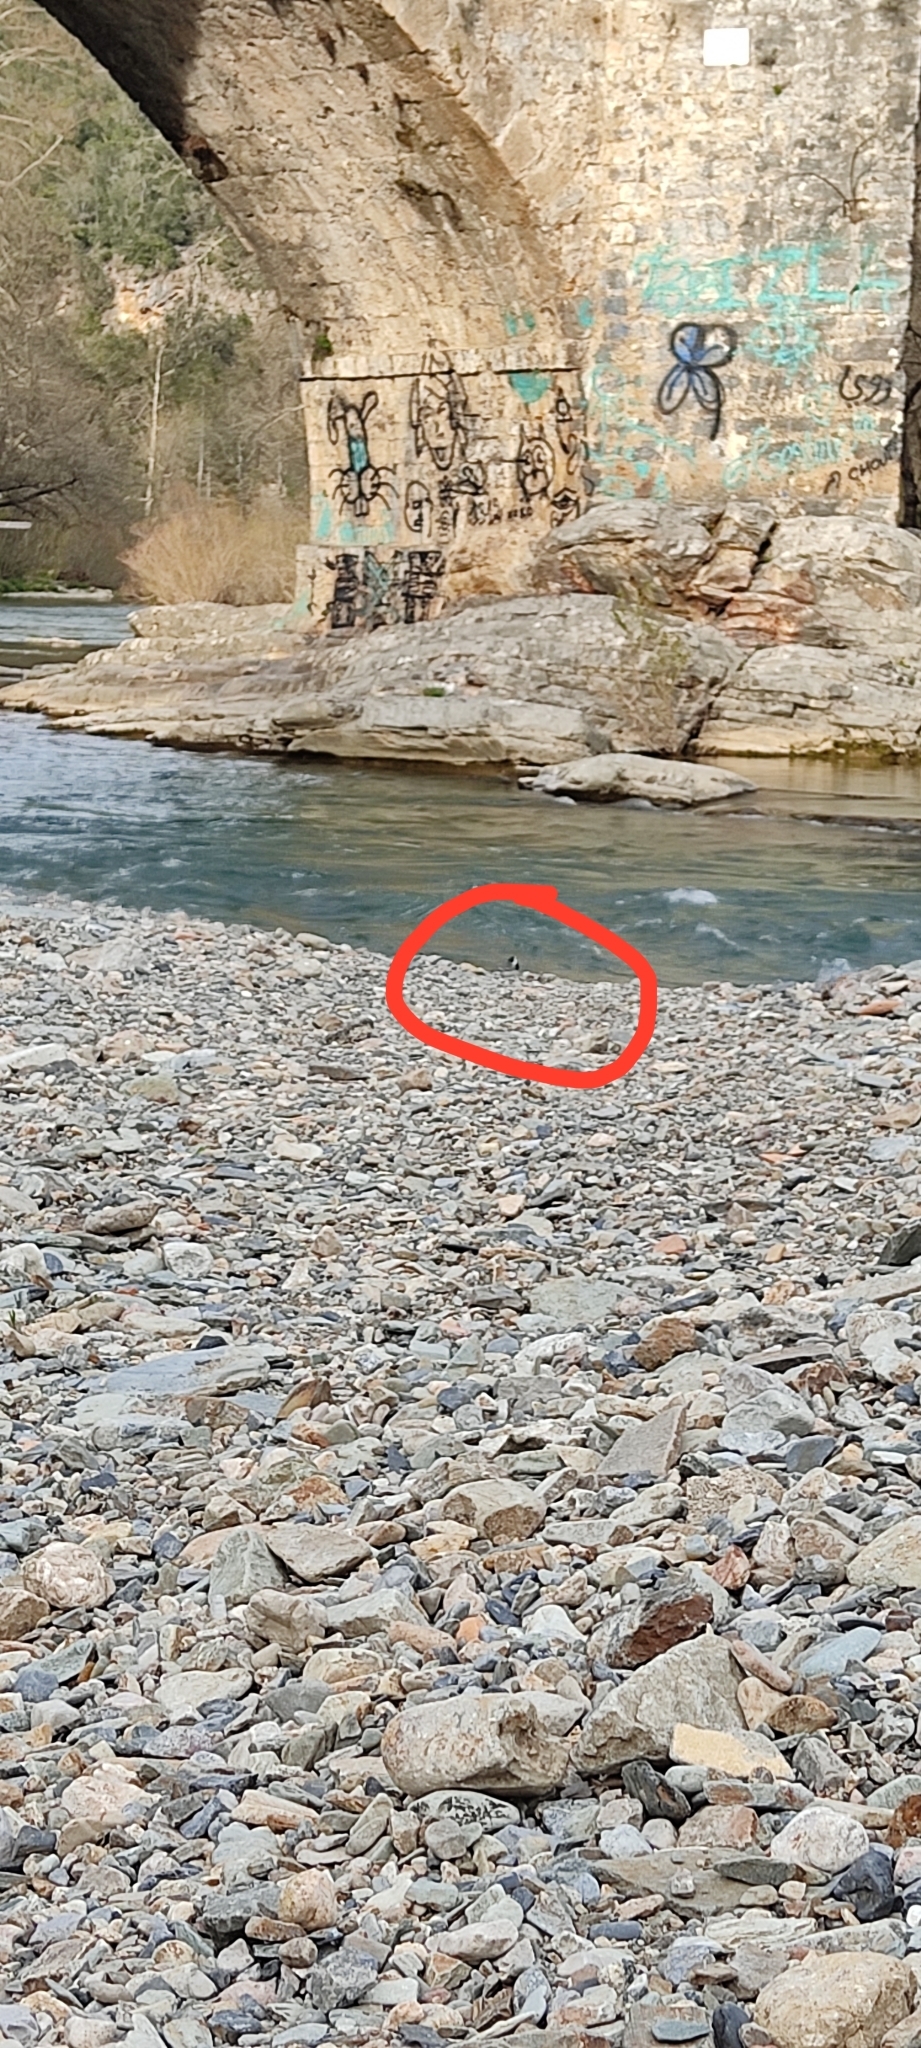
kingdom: Animalia
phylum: Chordata
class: Aves
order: Passeriformes
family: Motacillidae
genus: Motacilla
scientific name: Motacilla alba
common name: White wagtail
